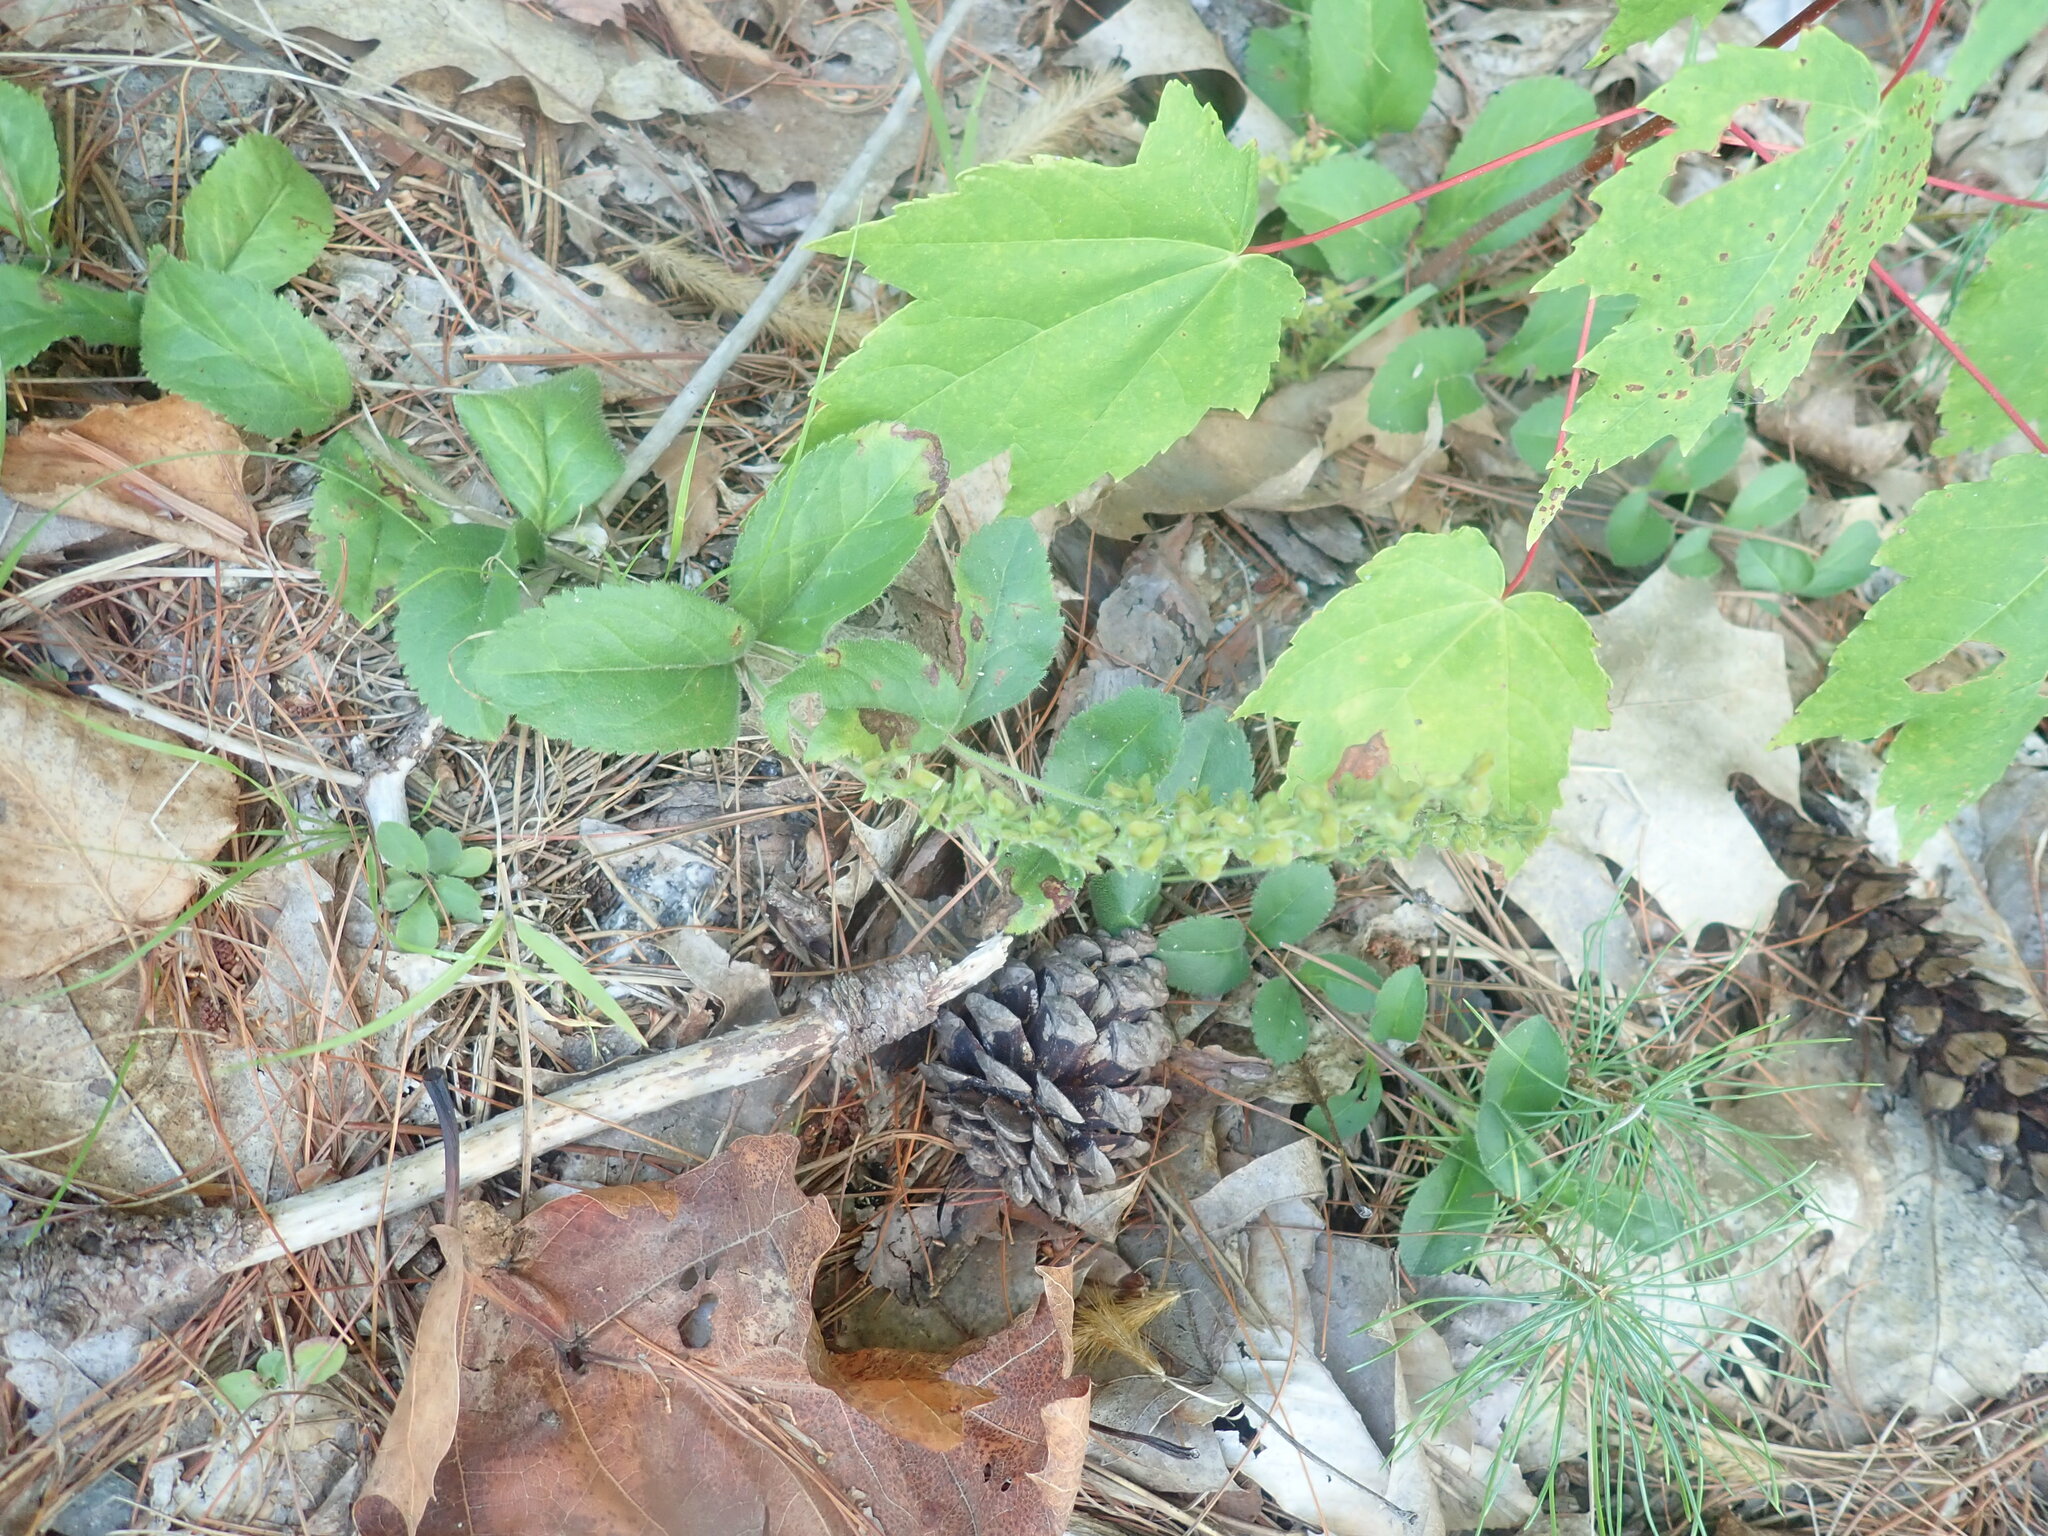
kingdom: Plantae
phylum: Tracheophyta
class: Magnoliopsida
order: Lamiales
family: Plantaginaceae
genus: Veronica
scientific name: Veronica officinalis
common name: Common speedwell
